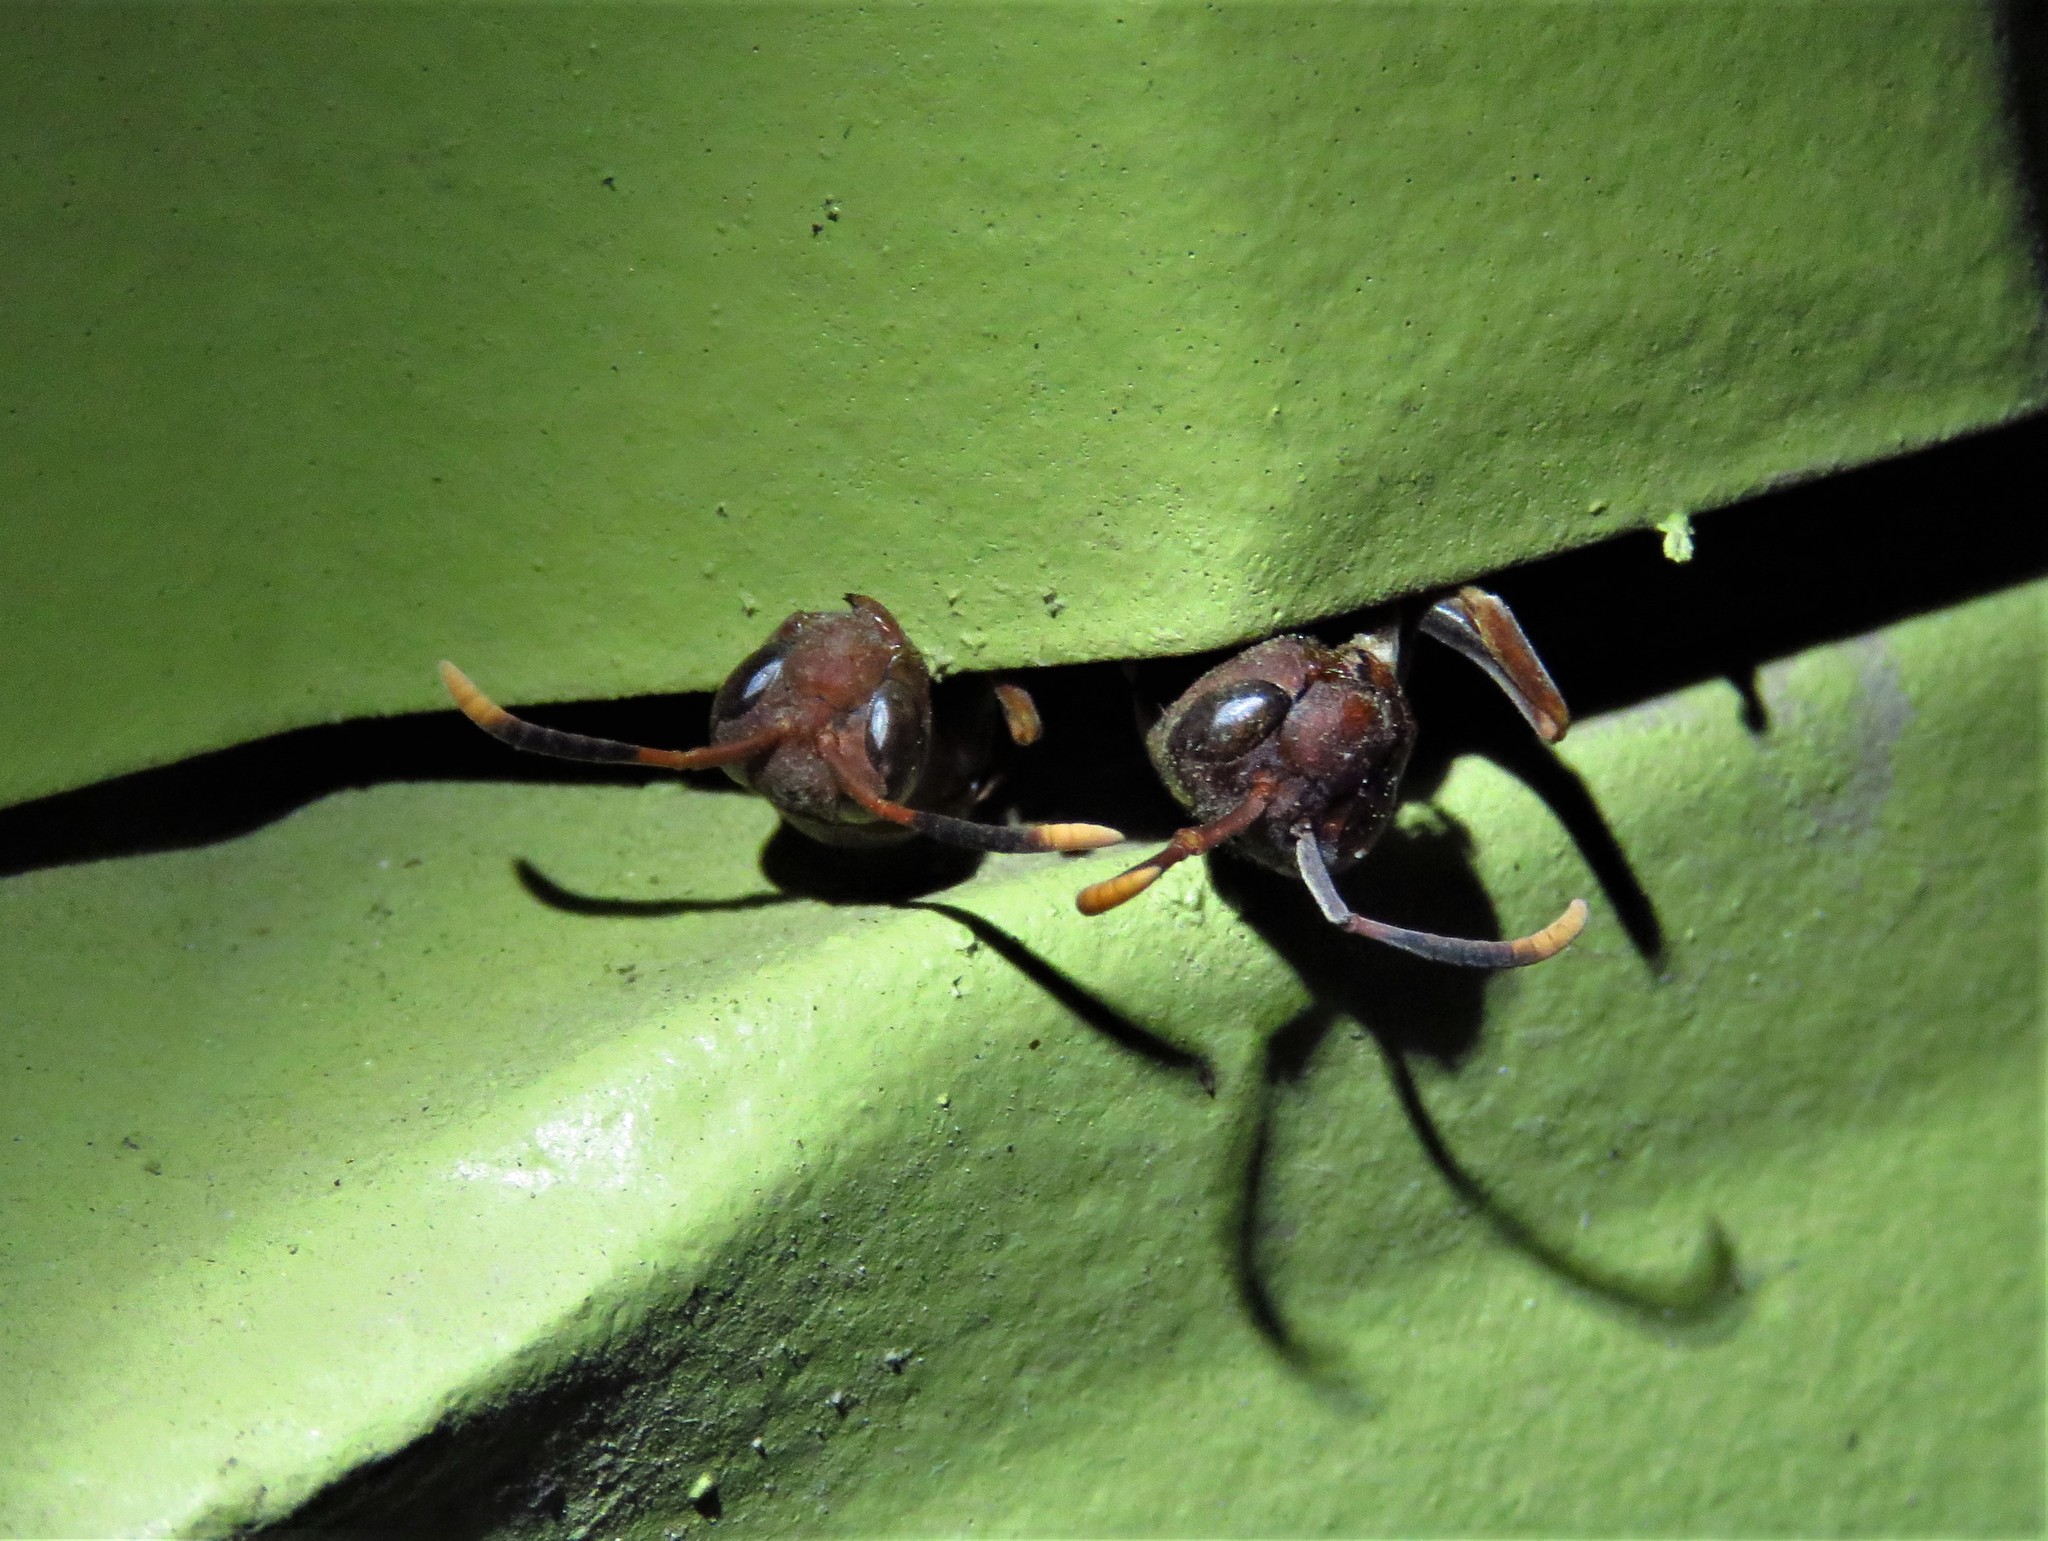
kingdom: Animalia
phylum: Arthropoda
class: Insecta
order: Hymenoptera
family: Eumenidae
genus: Polistes
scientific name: Polistes annularis
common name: Ringed paper wasp
